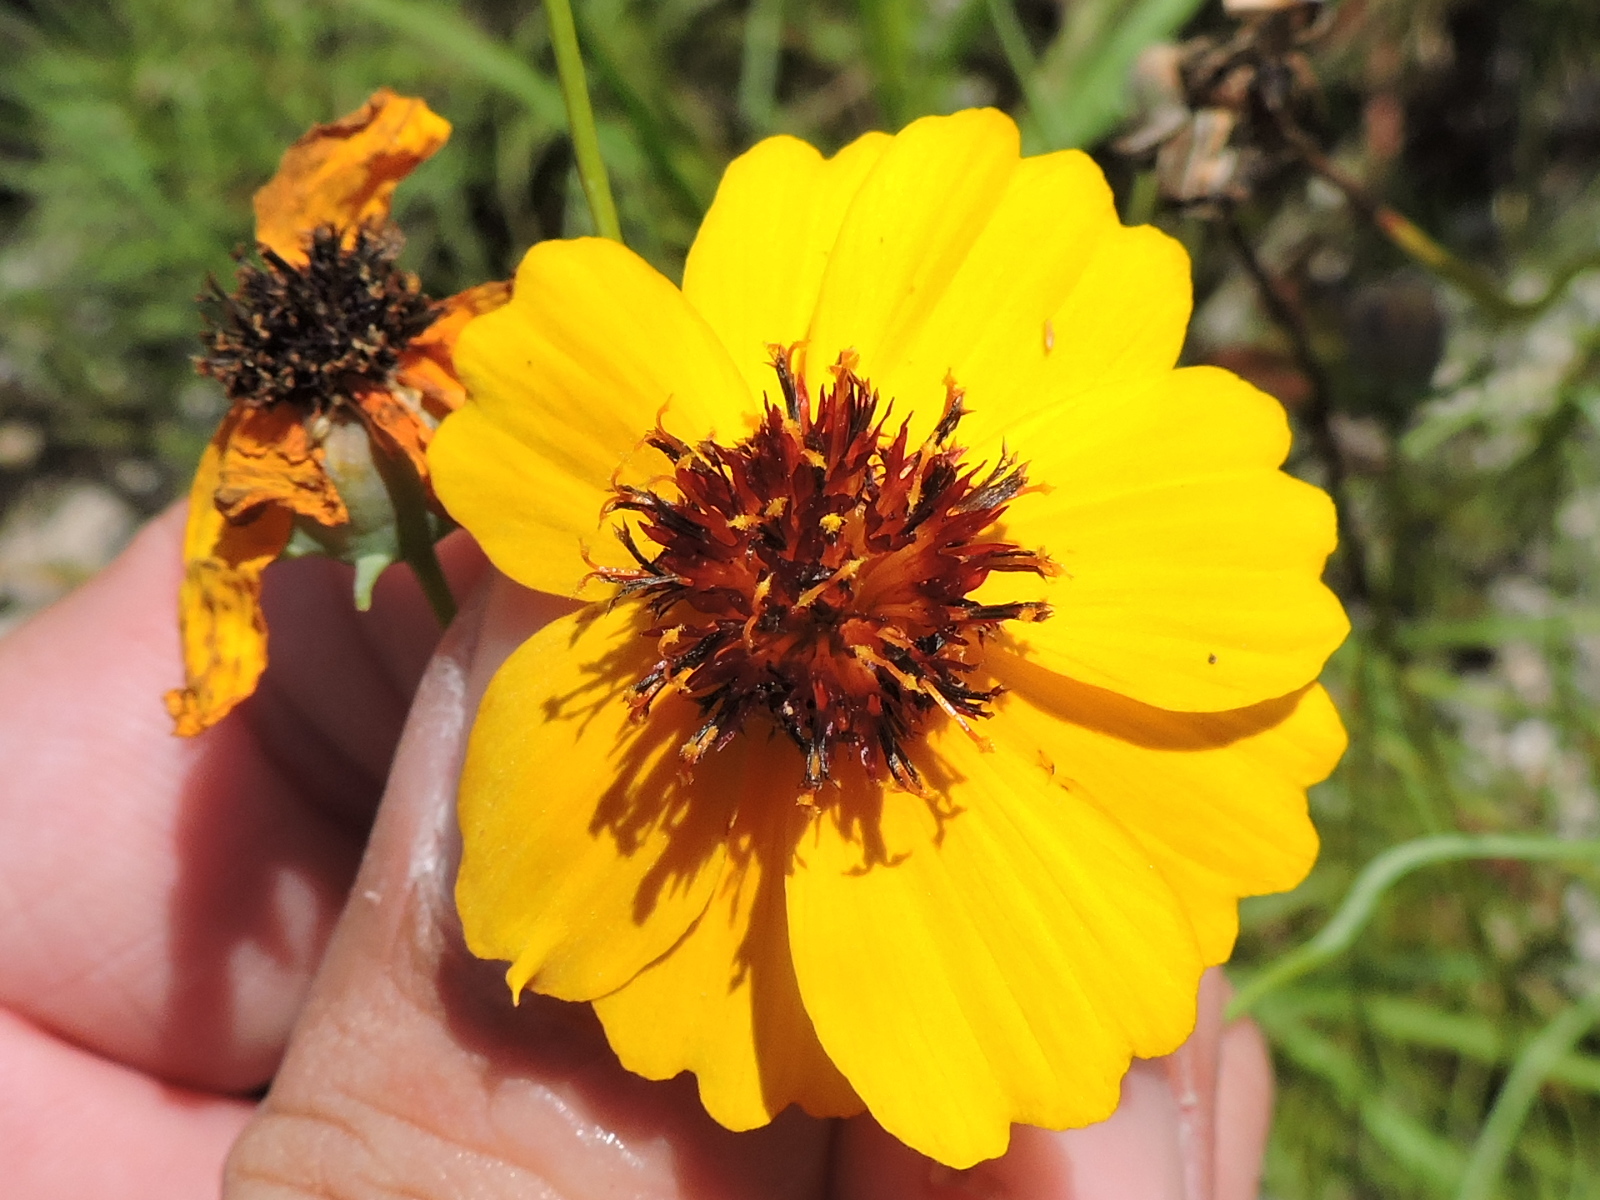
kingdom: Plantae
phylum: Tracheophyta
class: Magnoliopsida
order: Asterales
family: Asteraceae
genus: Thelesperma
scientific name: Thelesperma filifolium
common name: Stiff greenthread
